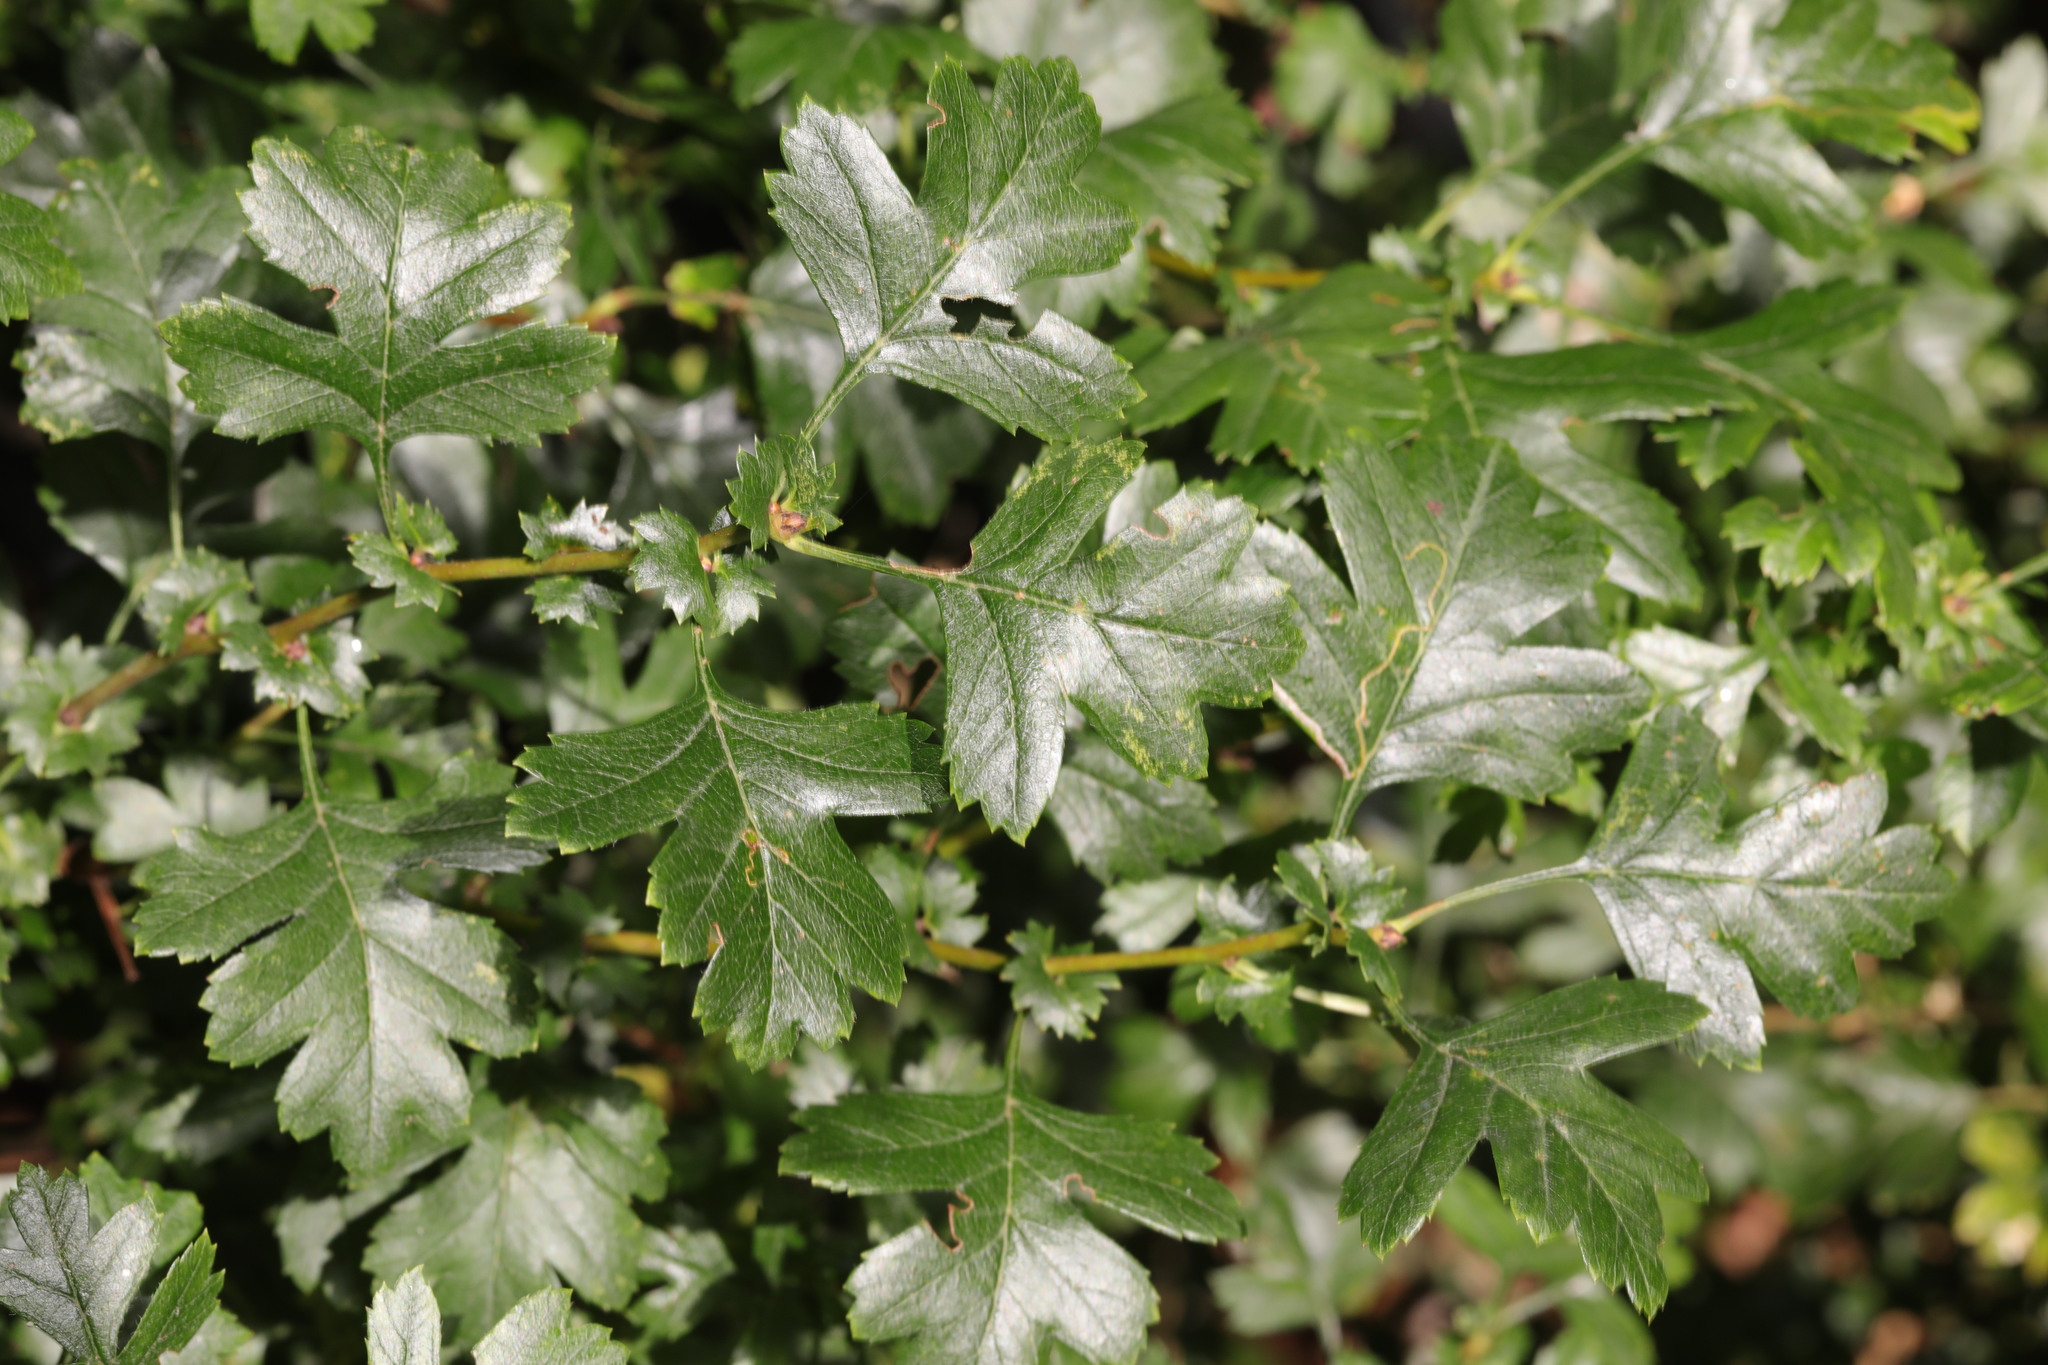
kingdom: Plantae
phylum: Tracheophyta
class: Magnoliopsida
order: Rosales
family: Rosaceae
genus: Crataegus
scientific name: Crataegus monogyna
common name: Hawthorn
